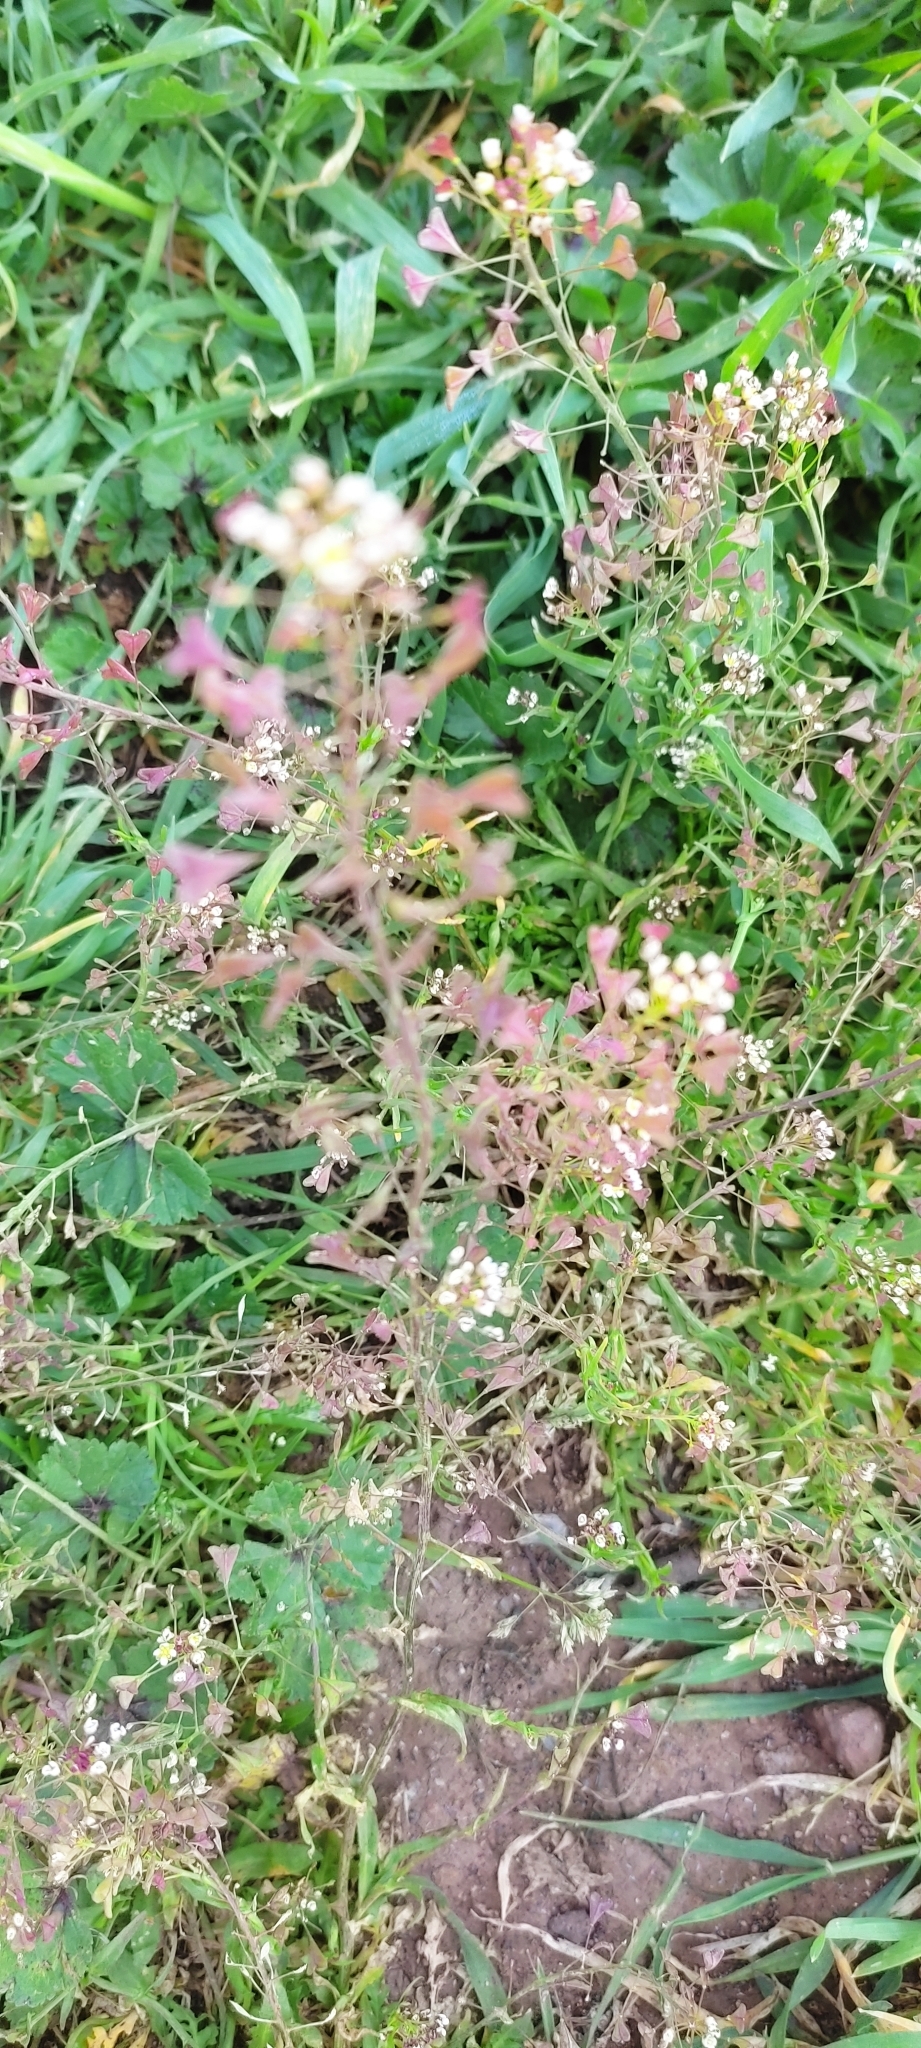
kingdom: Plantae
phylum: Tracheophyta
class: Magnoliopsida
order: Brassicales
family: Brassicaceae
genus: Capsella
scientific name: Capsella bursa-pastoris
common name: Shepherd's purse
